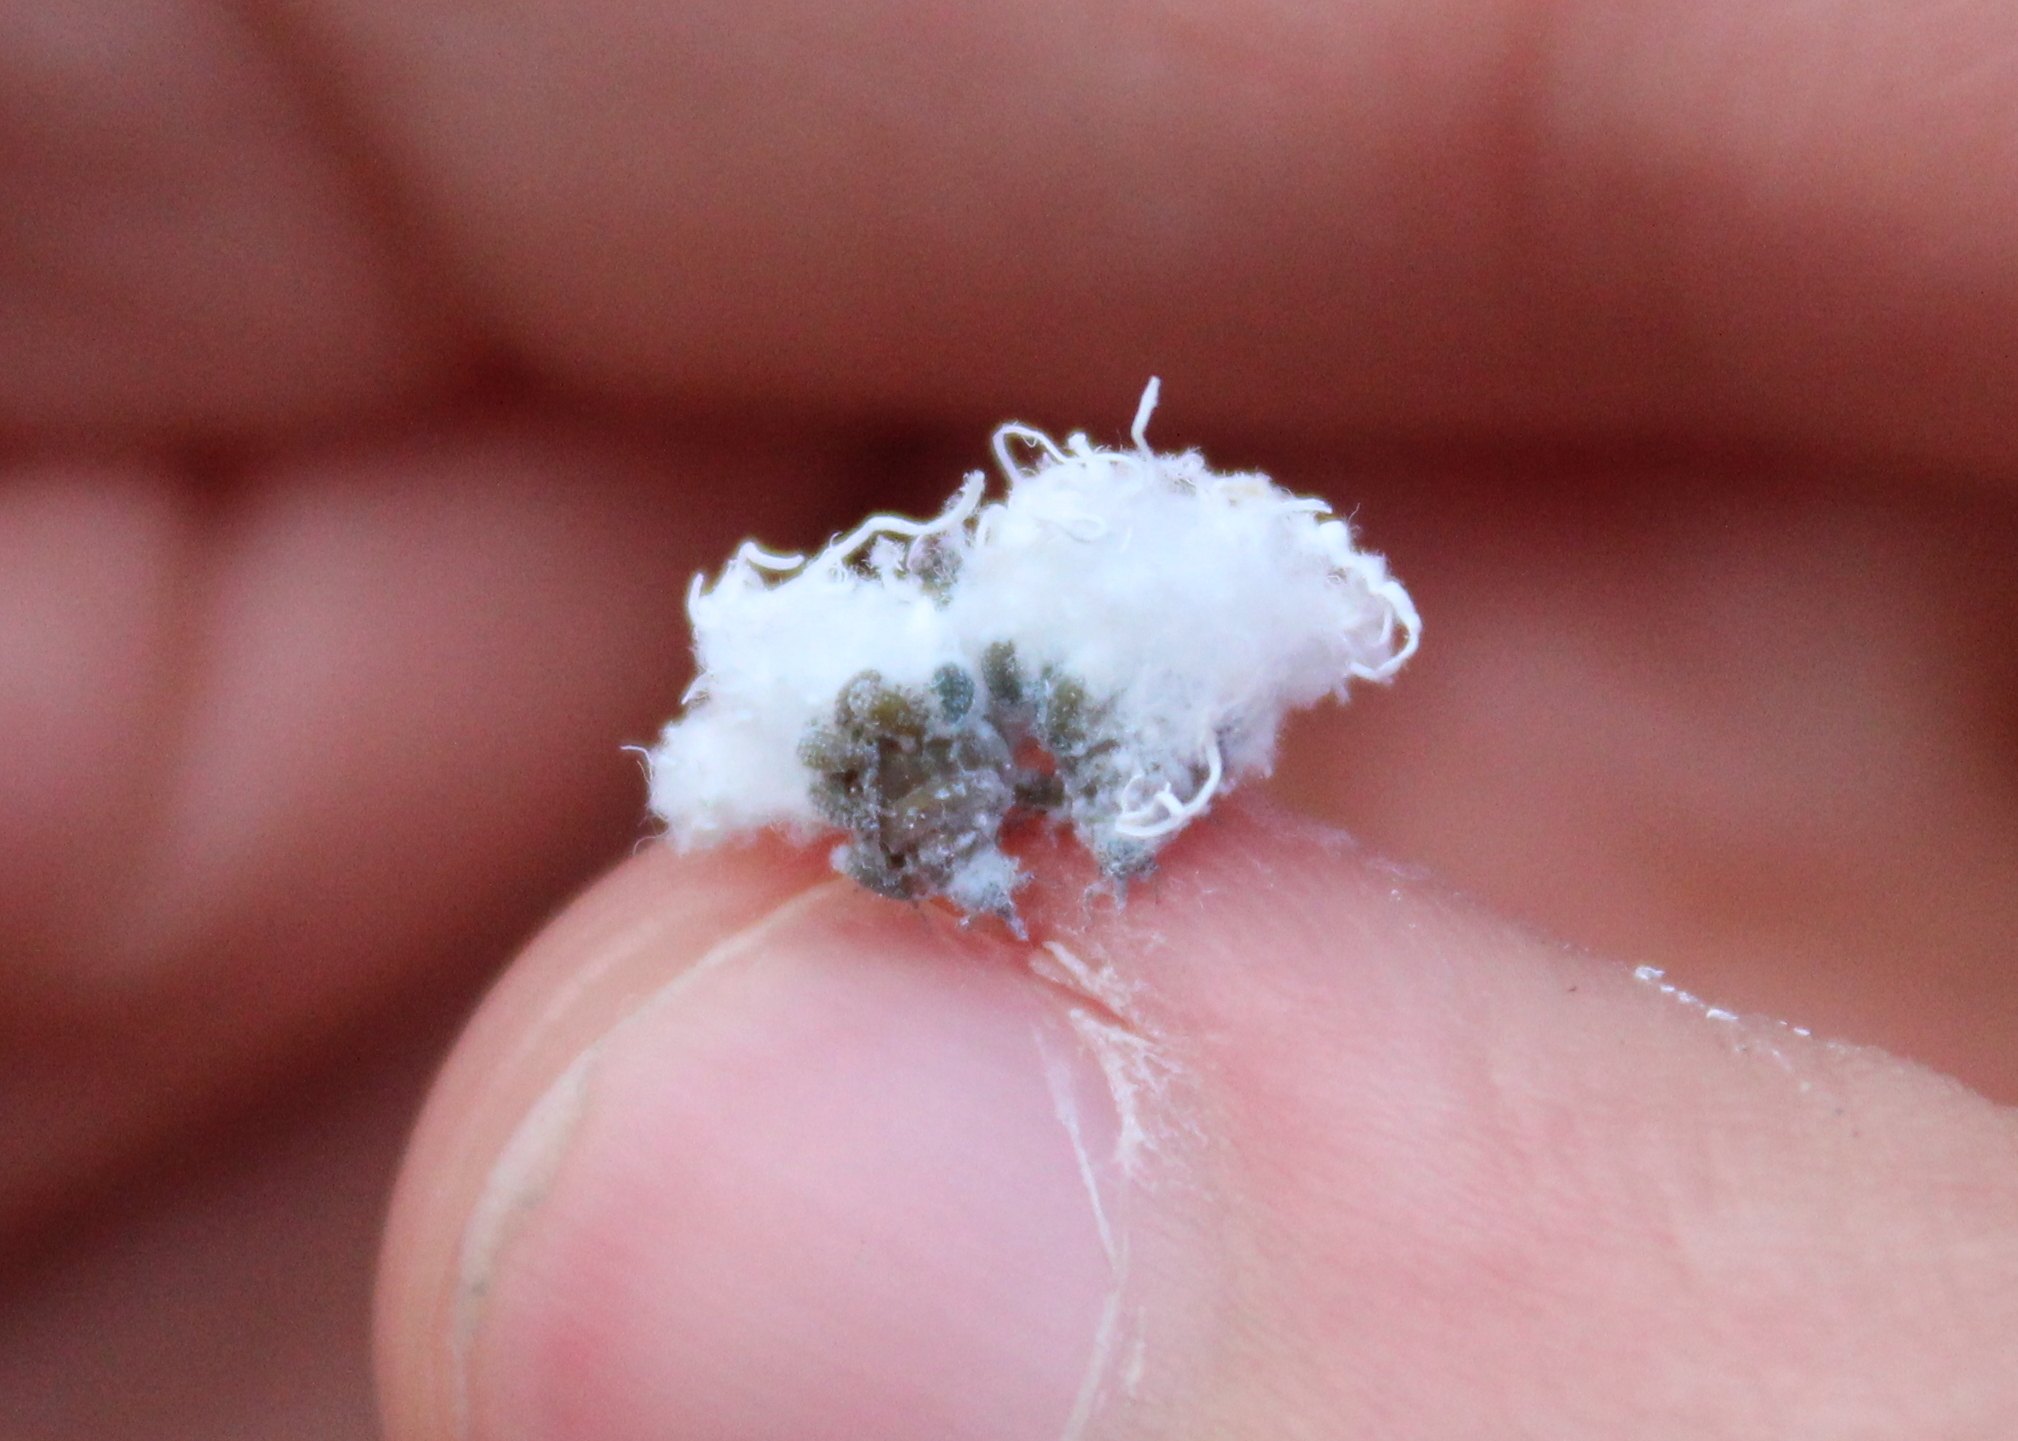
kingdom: Animalia
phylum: Arthropoda
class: Insecta
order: Hemiptera
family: Aphididae
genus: Prociphilus
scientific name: Prociphilus tessellatus
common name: Woolly alder aphid
